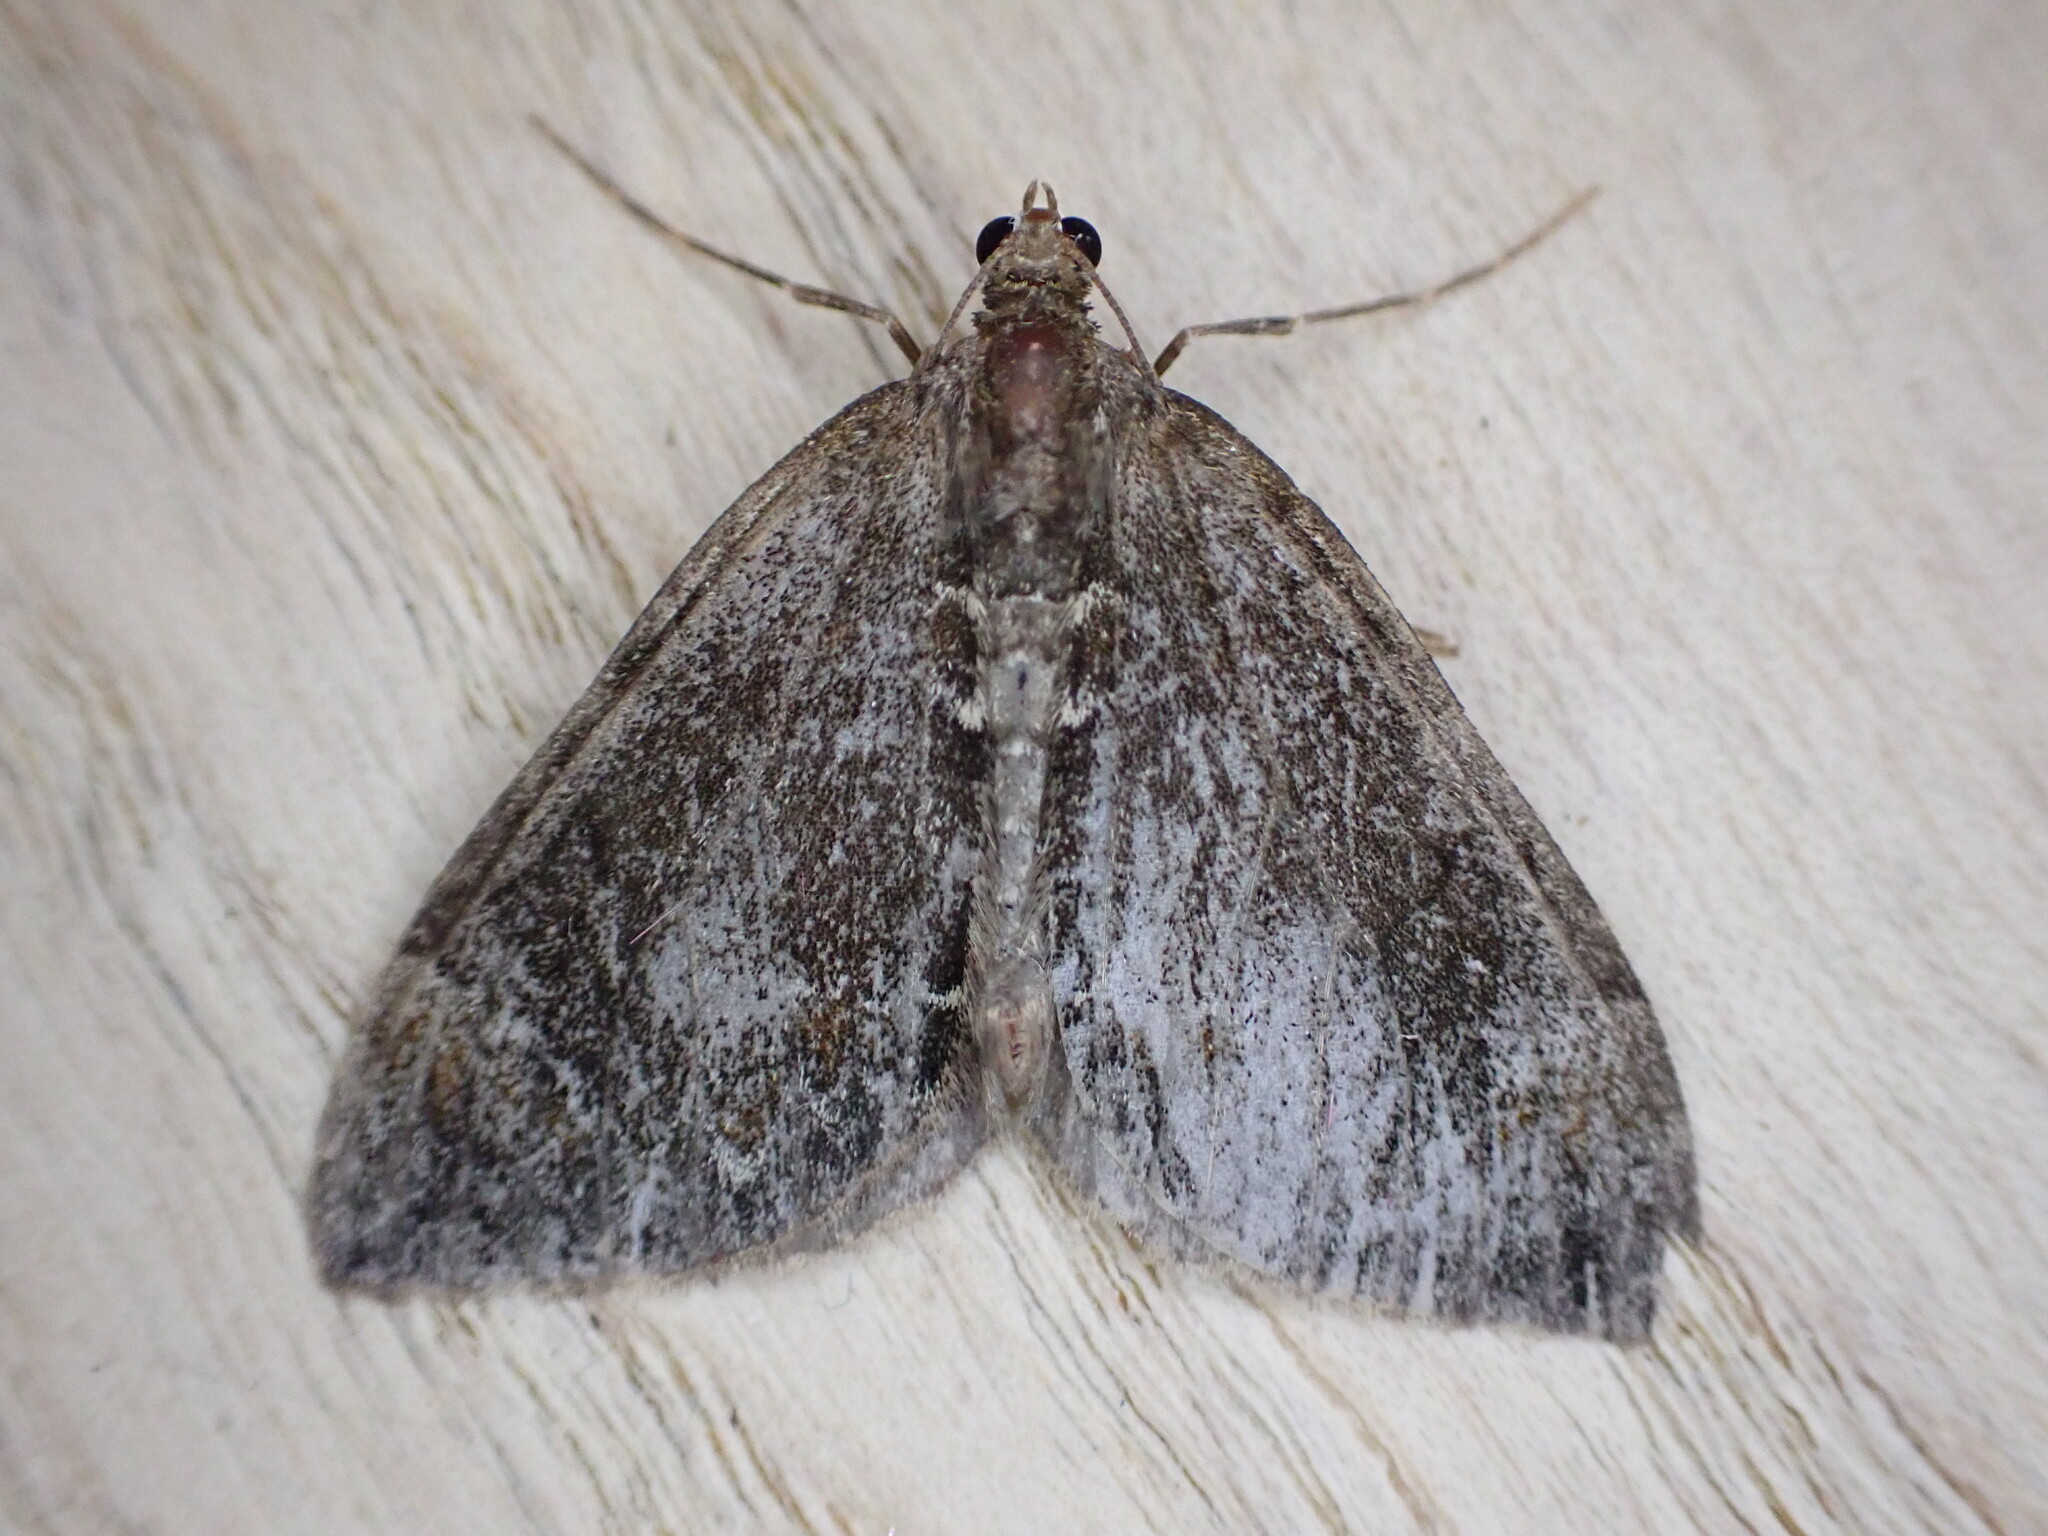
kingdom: Animalia
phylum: Arthropoda
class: Insecta
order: Lepidoptera
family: Geometridae
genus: Dysstroma
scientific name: Dysstroma truncata
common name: Common marbled carpet
